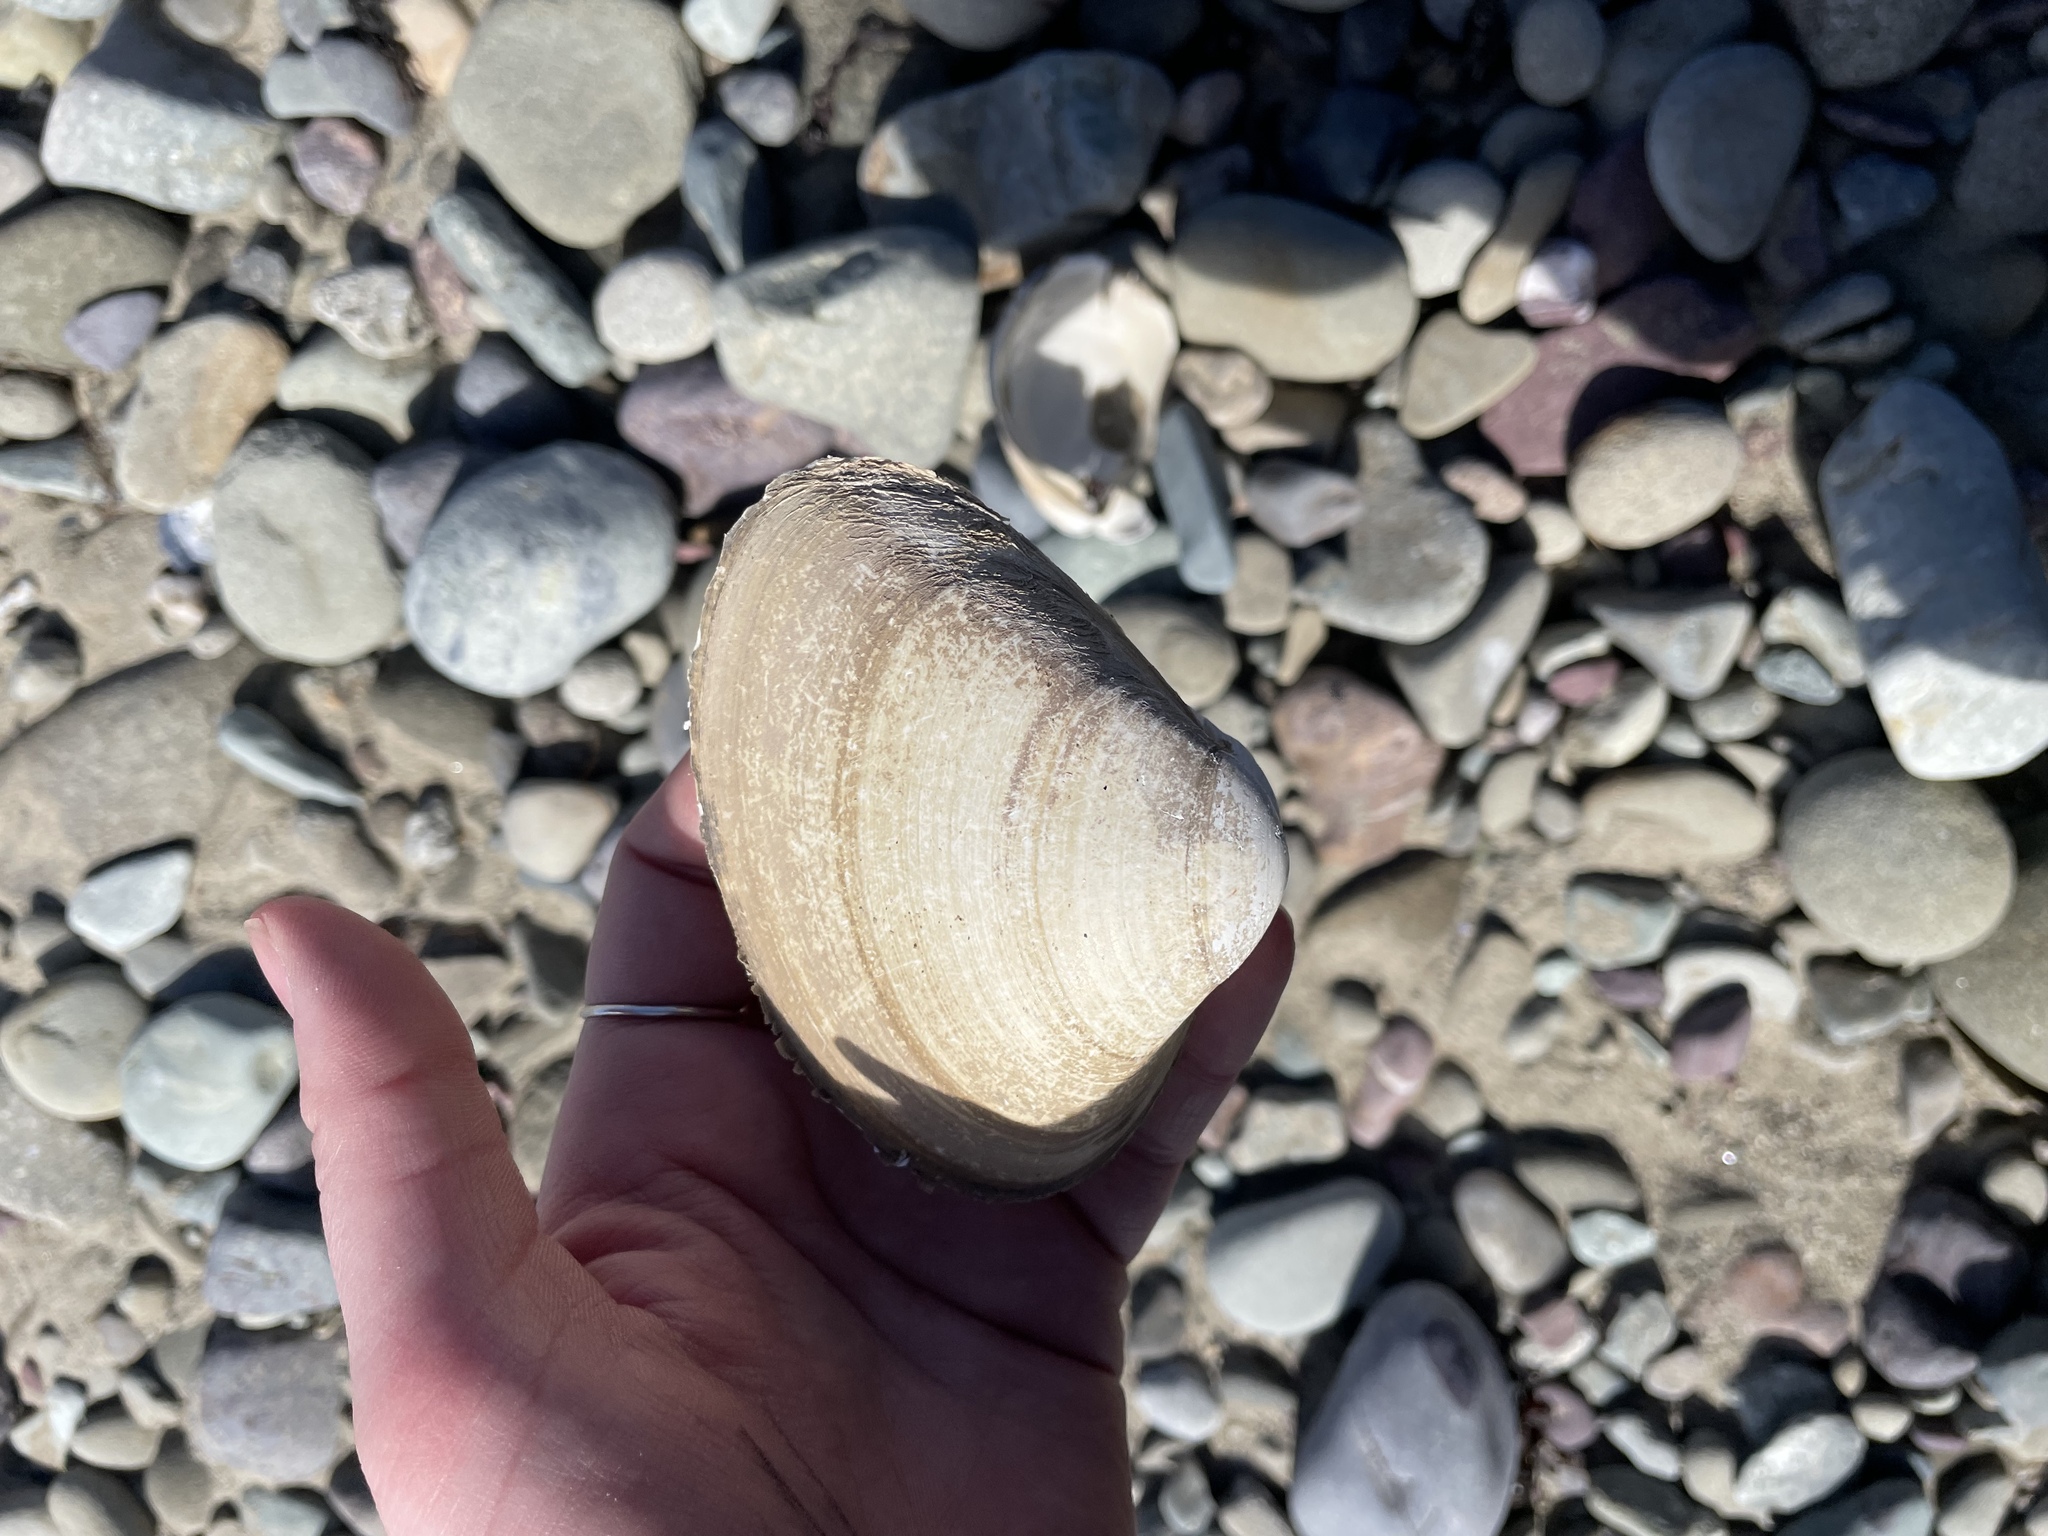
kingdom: Animalia
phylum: Mollusca
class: Bivalvia
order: Venerida
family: Mactridae
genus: Spisula
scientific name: Spisula solidissima
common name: Atlantic surf clam
